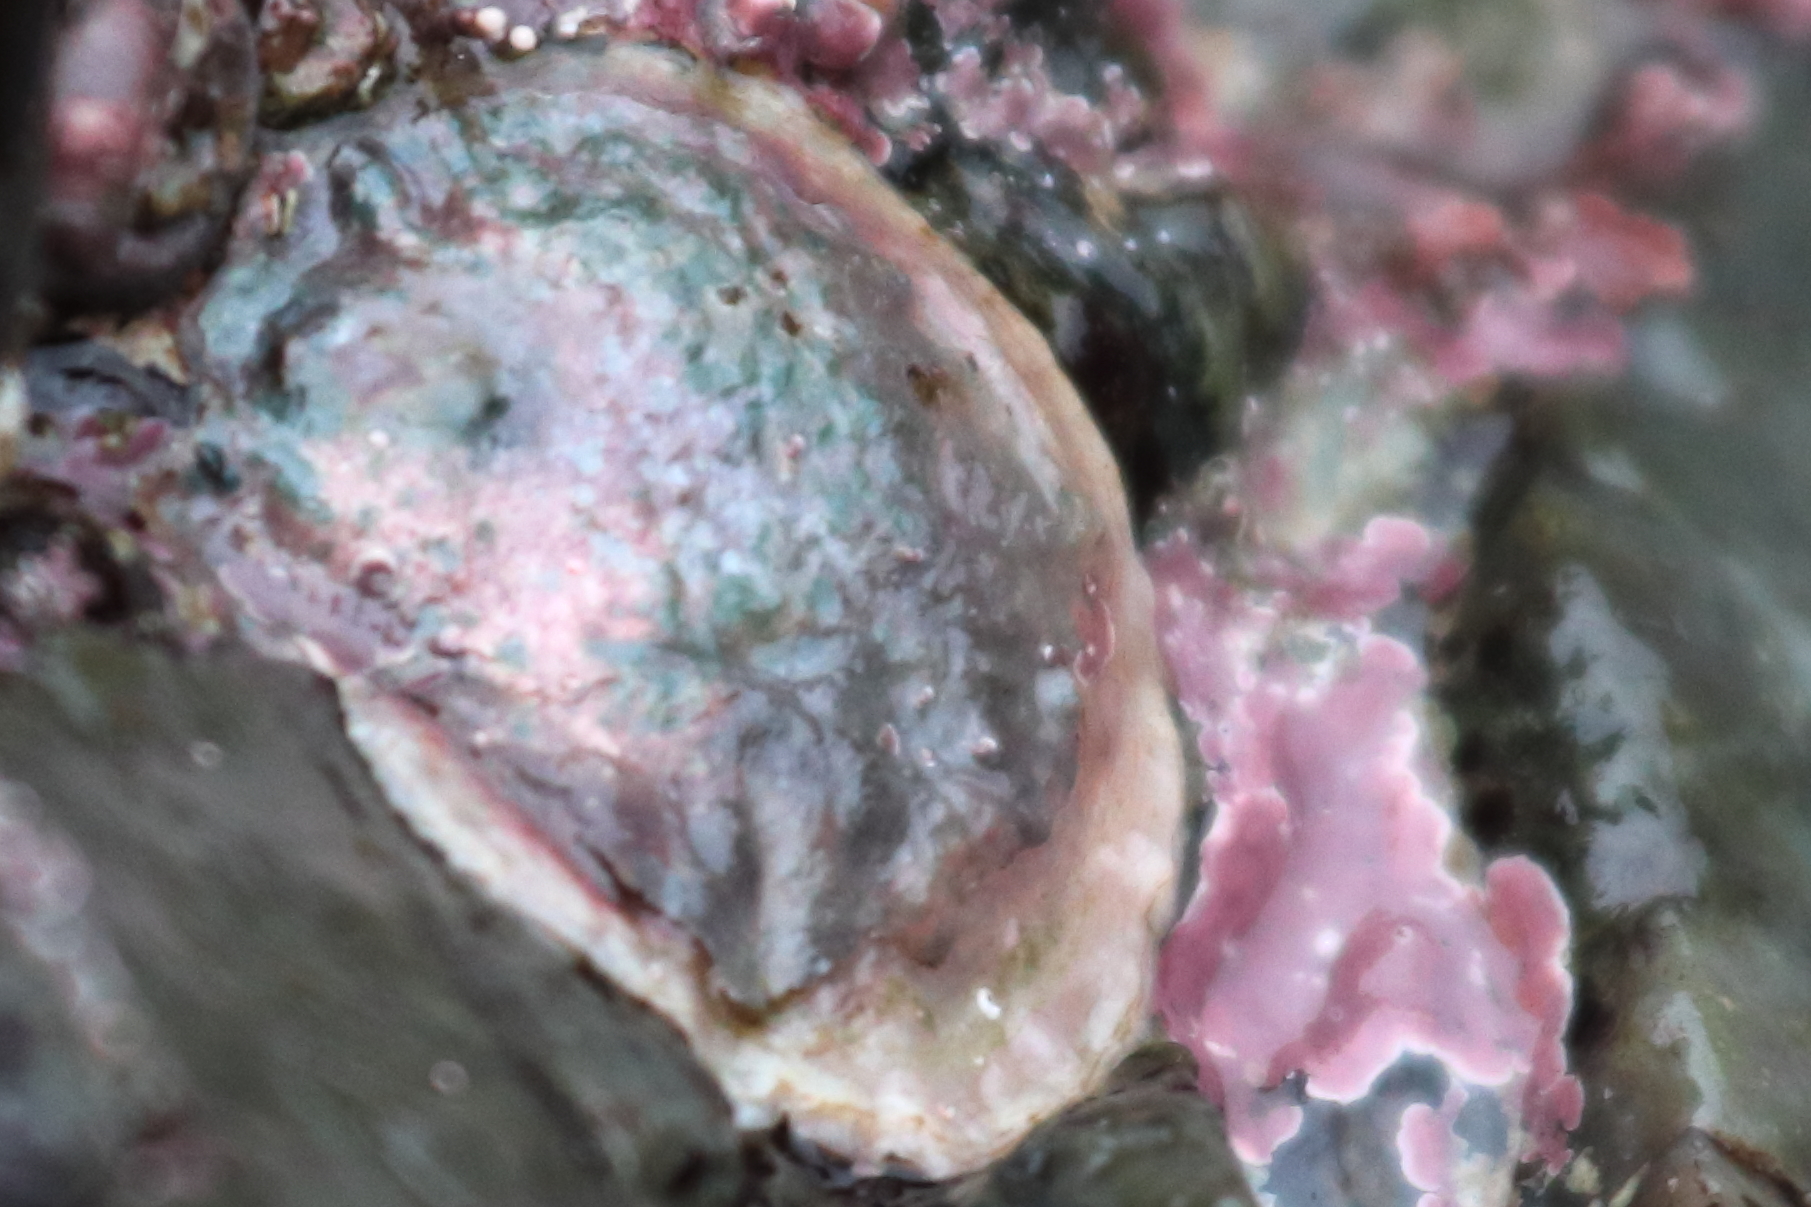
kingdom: Animalia
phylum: Mollusca
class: Bivalvia
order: Pectinida
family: Anomiidae
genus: Pododesmus
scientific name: Pododesmus macrochisma
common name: Alaska jingle
